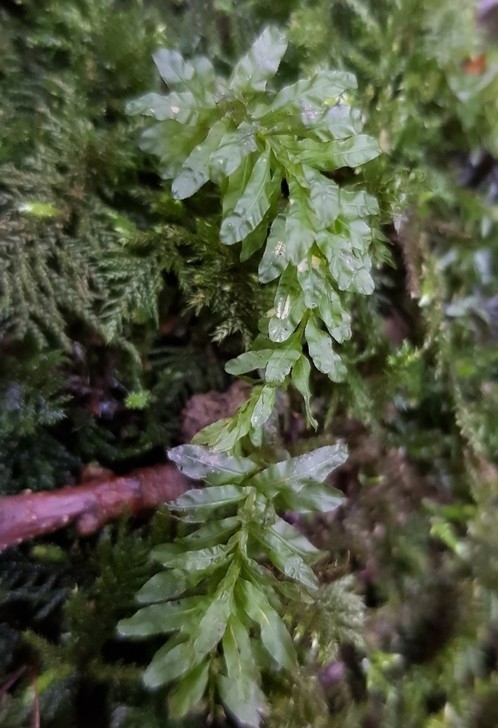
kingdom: Plantae
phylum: Bryophyta
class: Bryopsida
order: Bryales
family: Mniaceae
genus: Plagiomnium
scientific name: Plagiomnium undulatum
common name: Hart's-tongue thyme-moss
